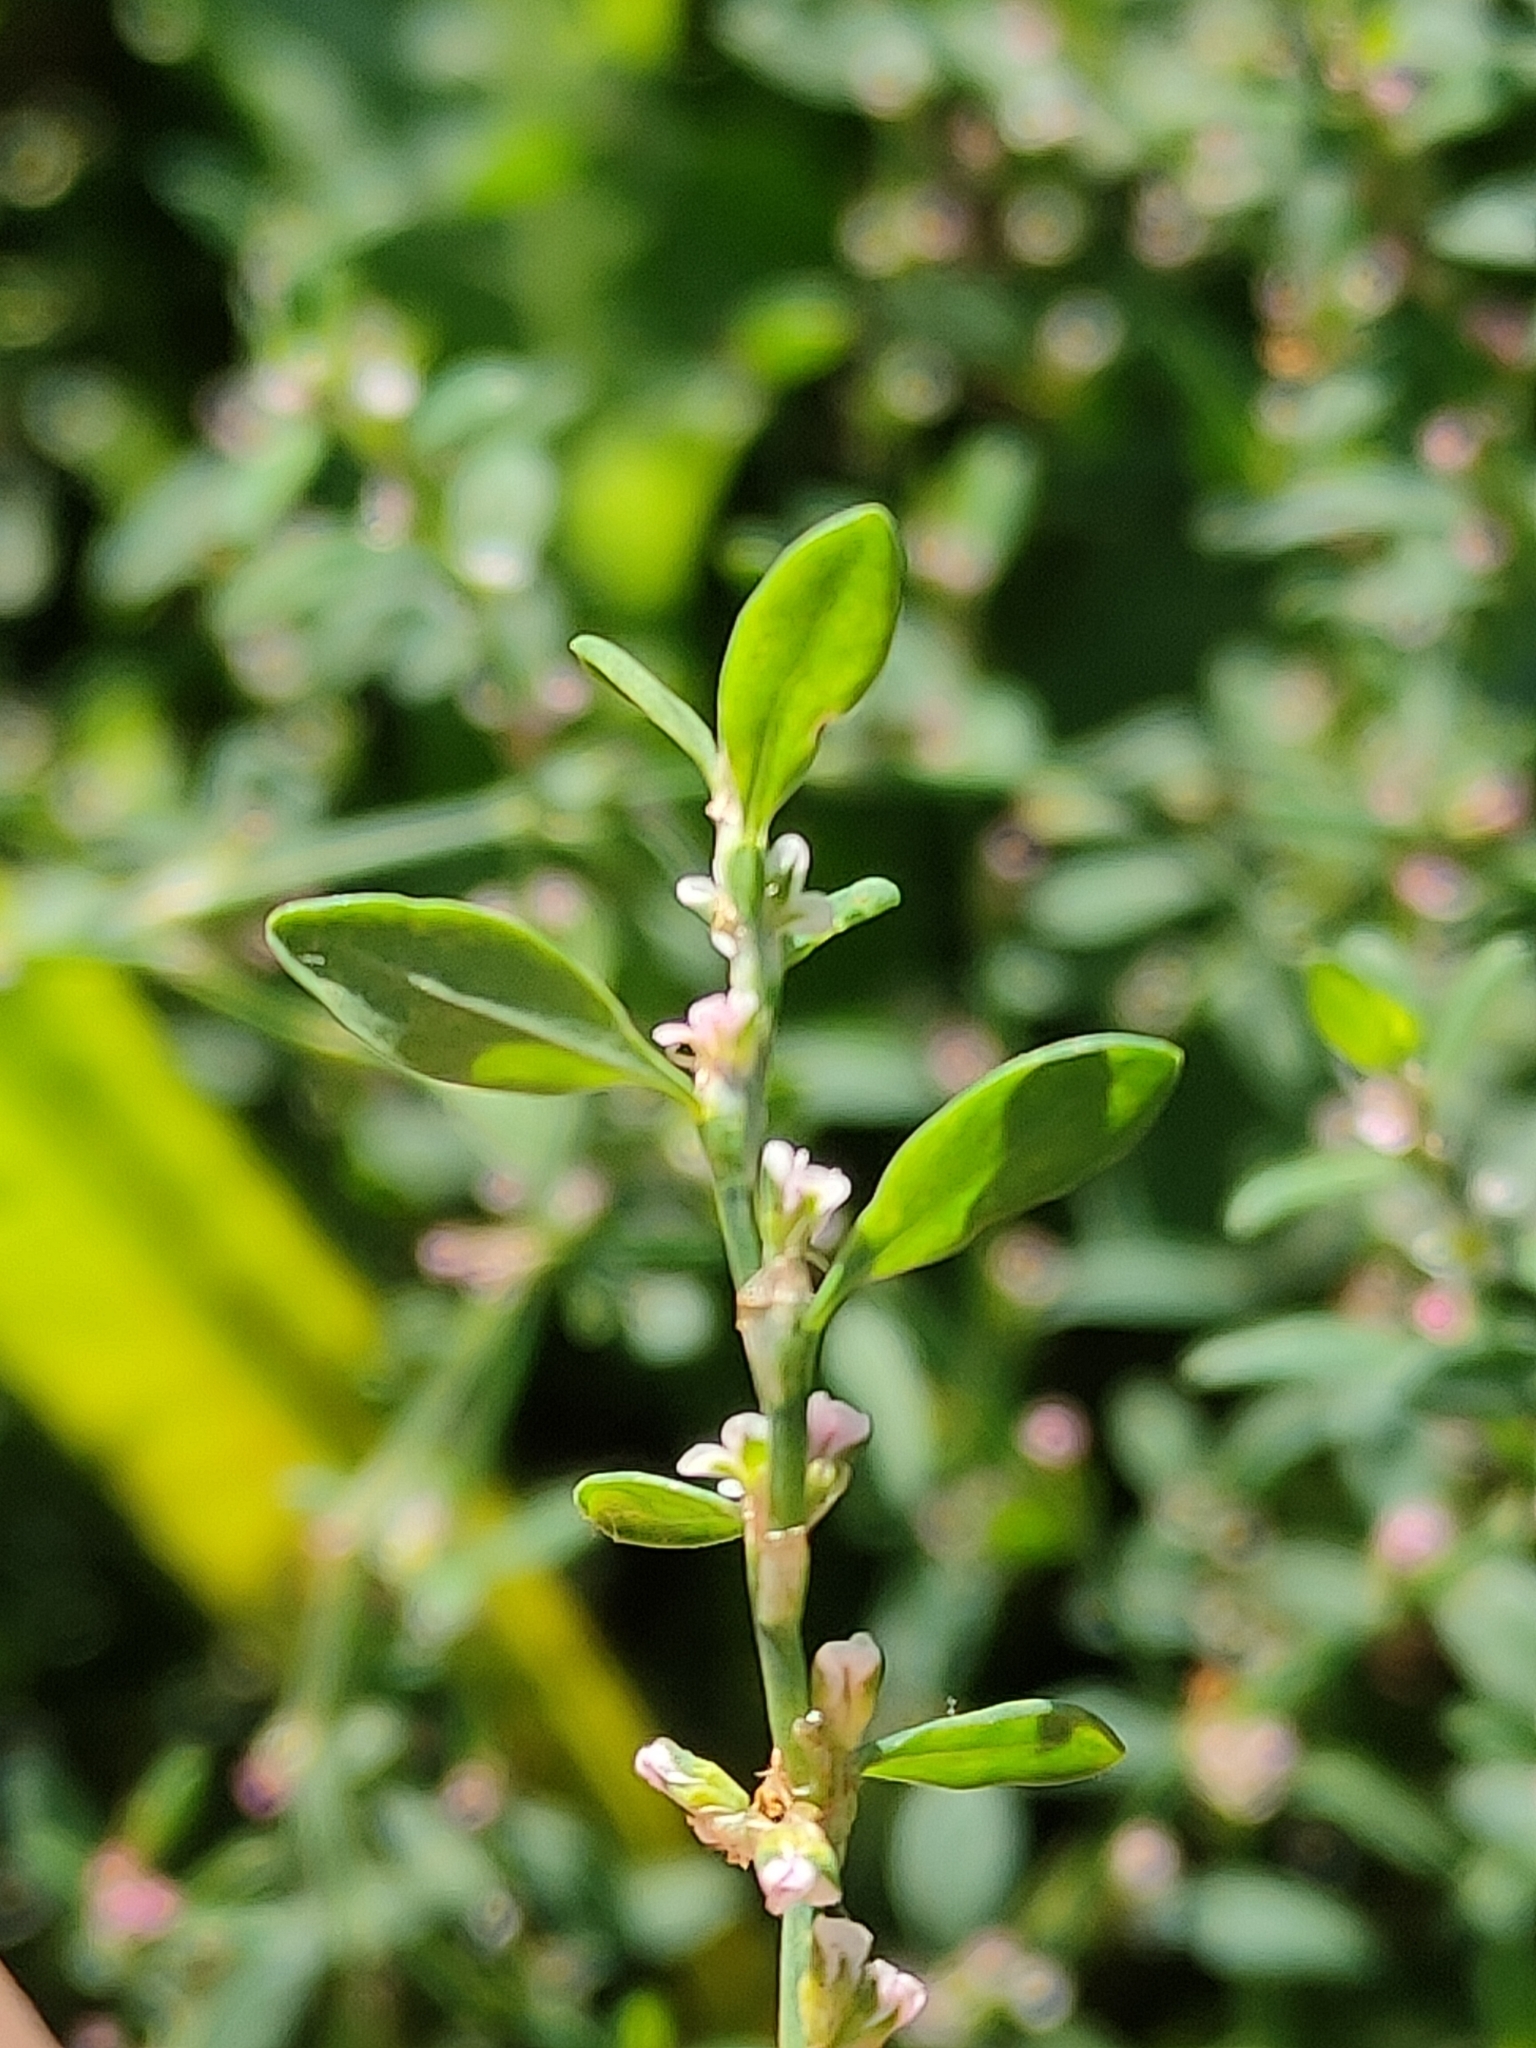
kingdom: Plantae
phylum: Tracheophyta
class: Magnoliopsida
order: Caryophyllales
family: Polygonaceae
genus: Polygonum
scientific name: Polygonum aviculare
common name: Prostrate knotweed
